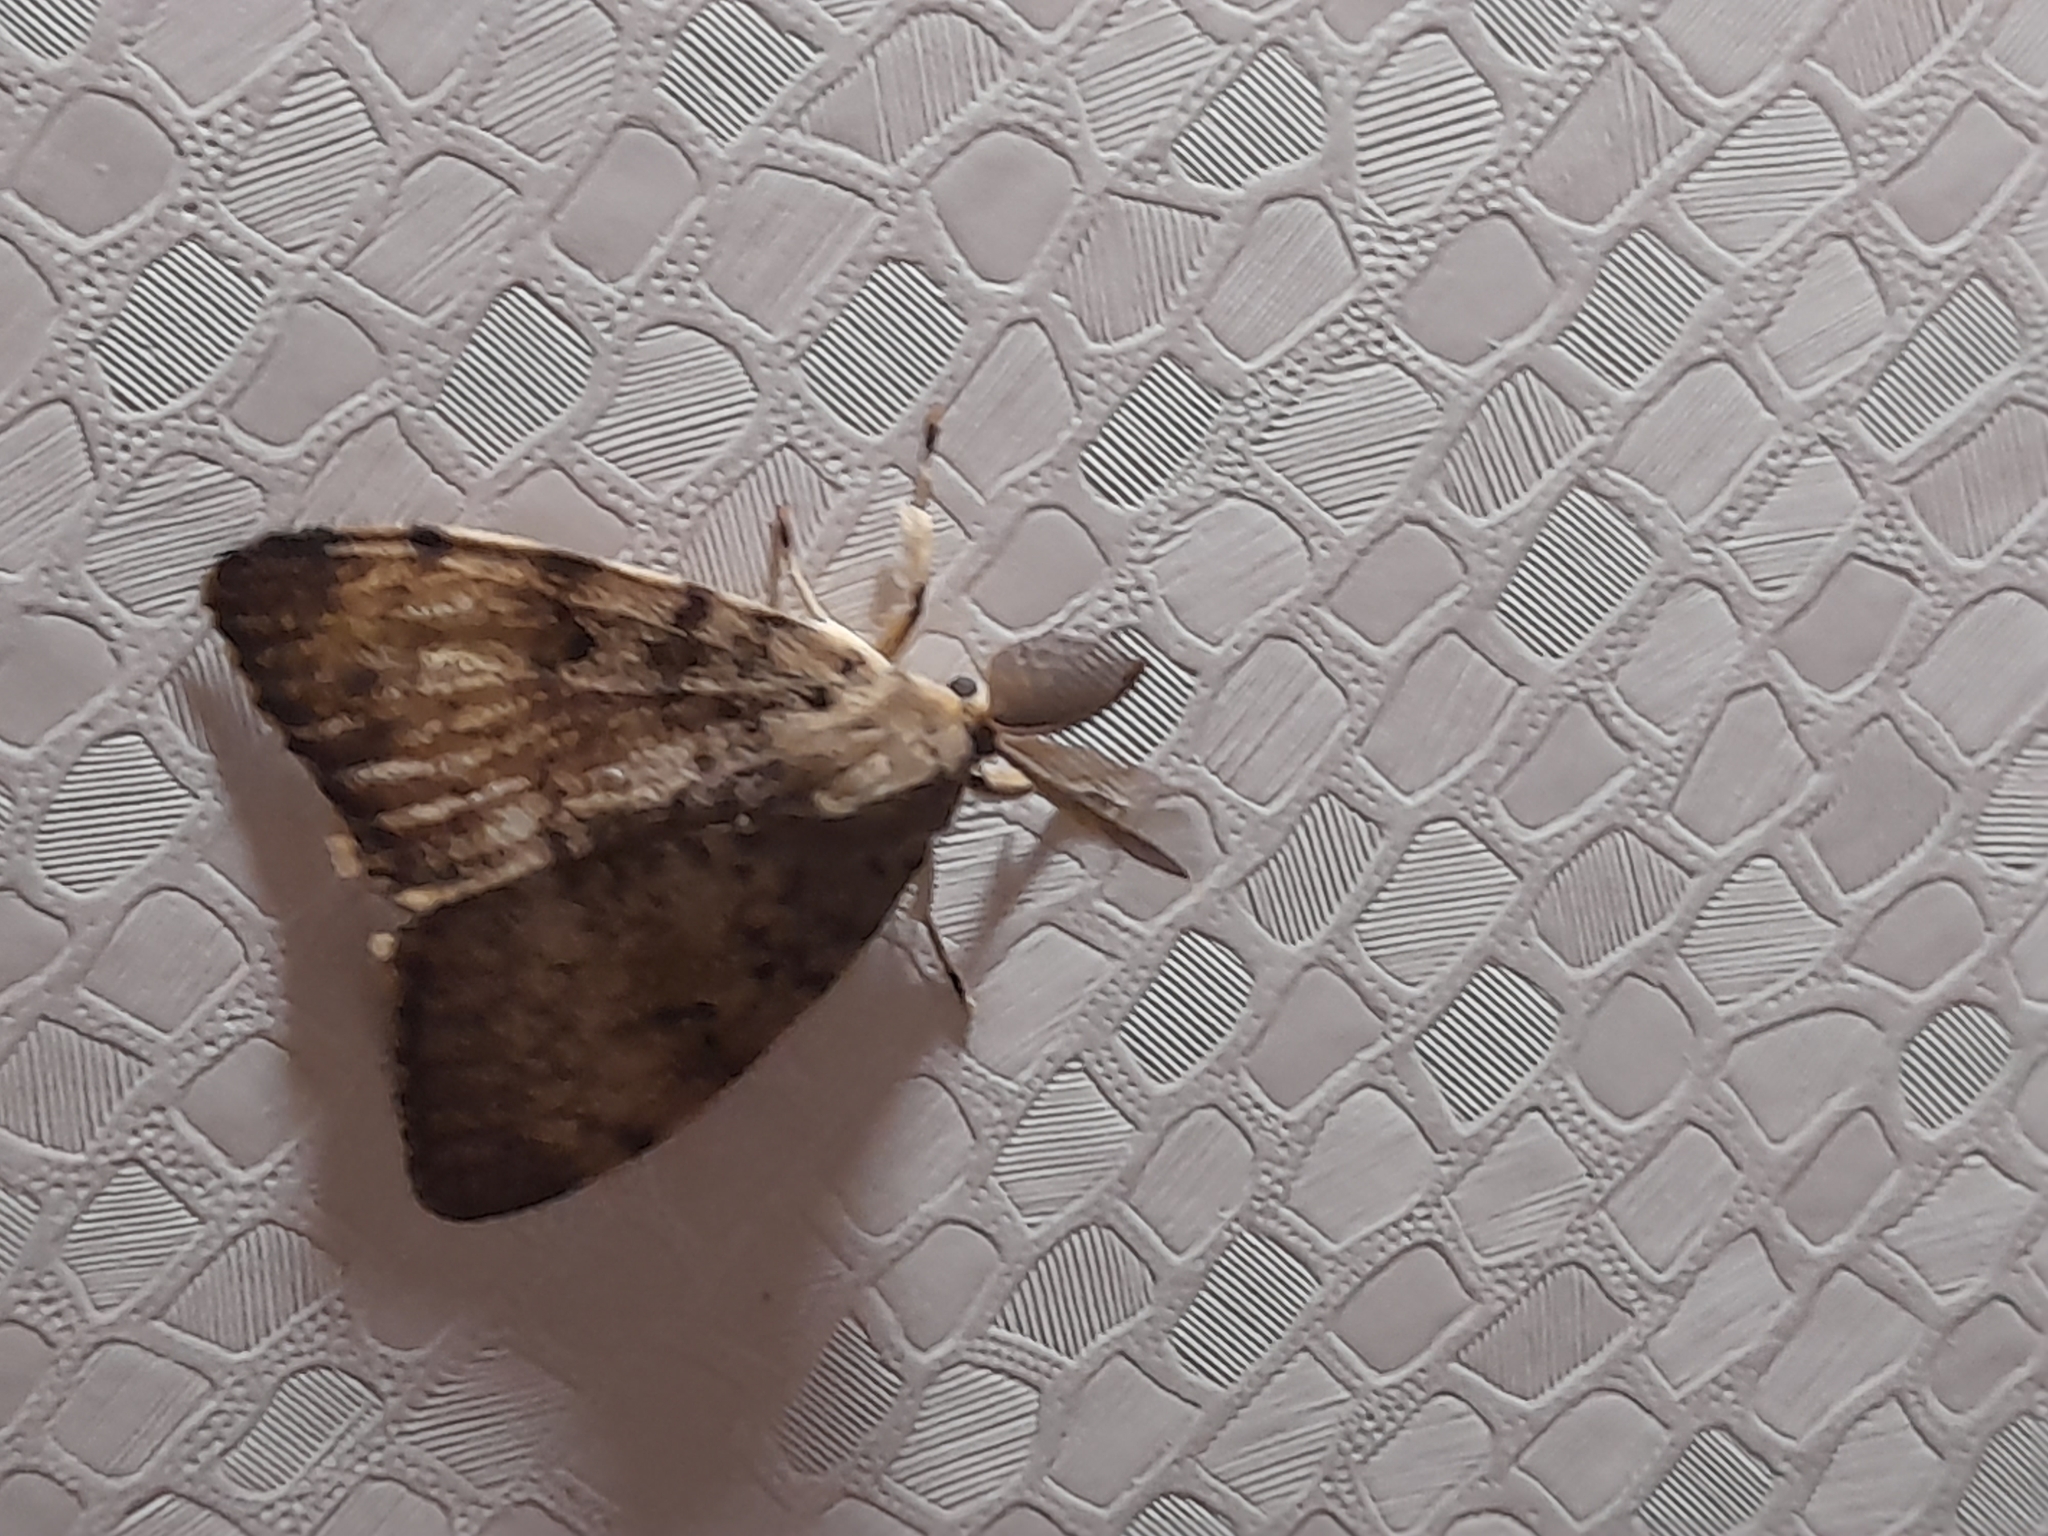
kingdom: Animalia
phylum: Arthropoda
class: Insecta
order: Lepidoptera
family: Erebidae
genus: Lymantria
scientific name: Lymantria dispar
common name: Gypsy moth
